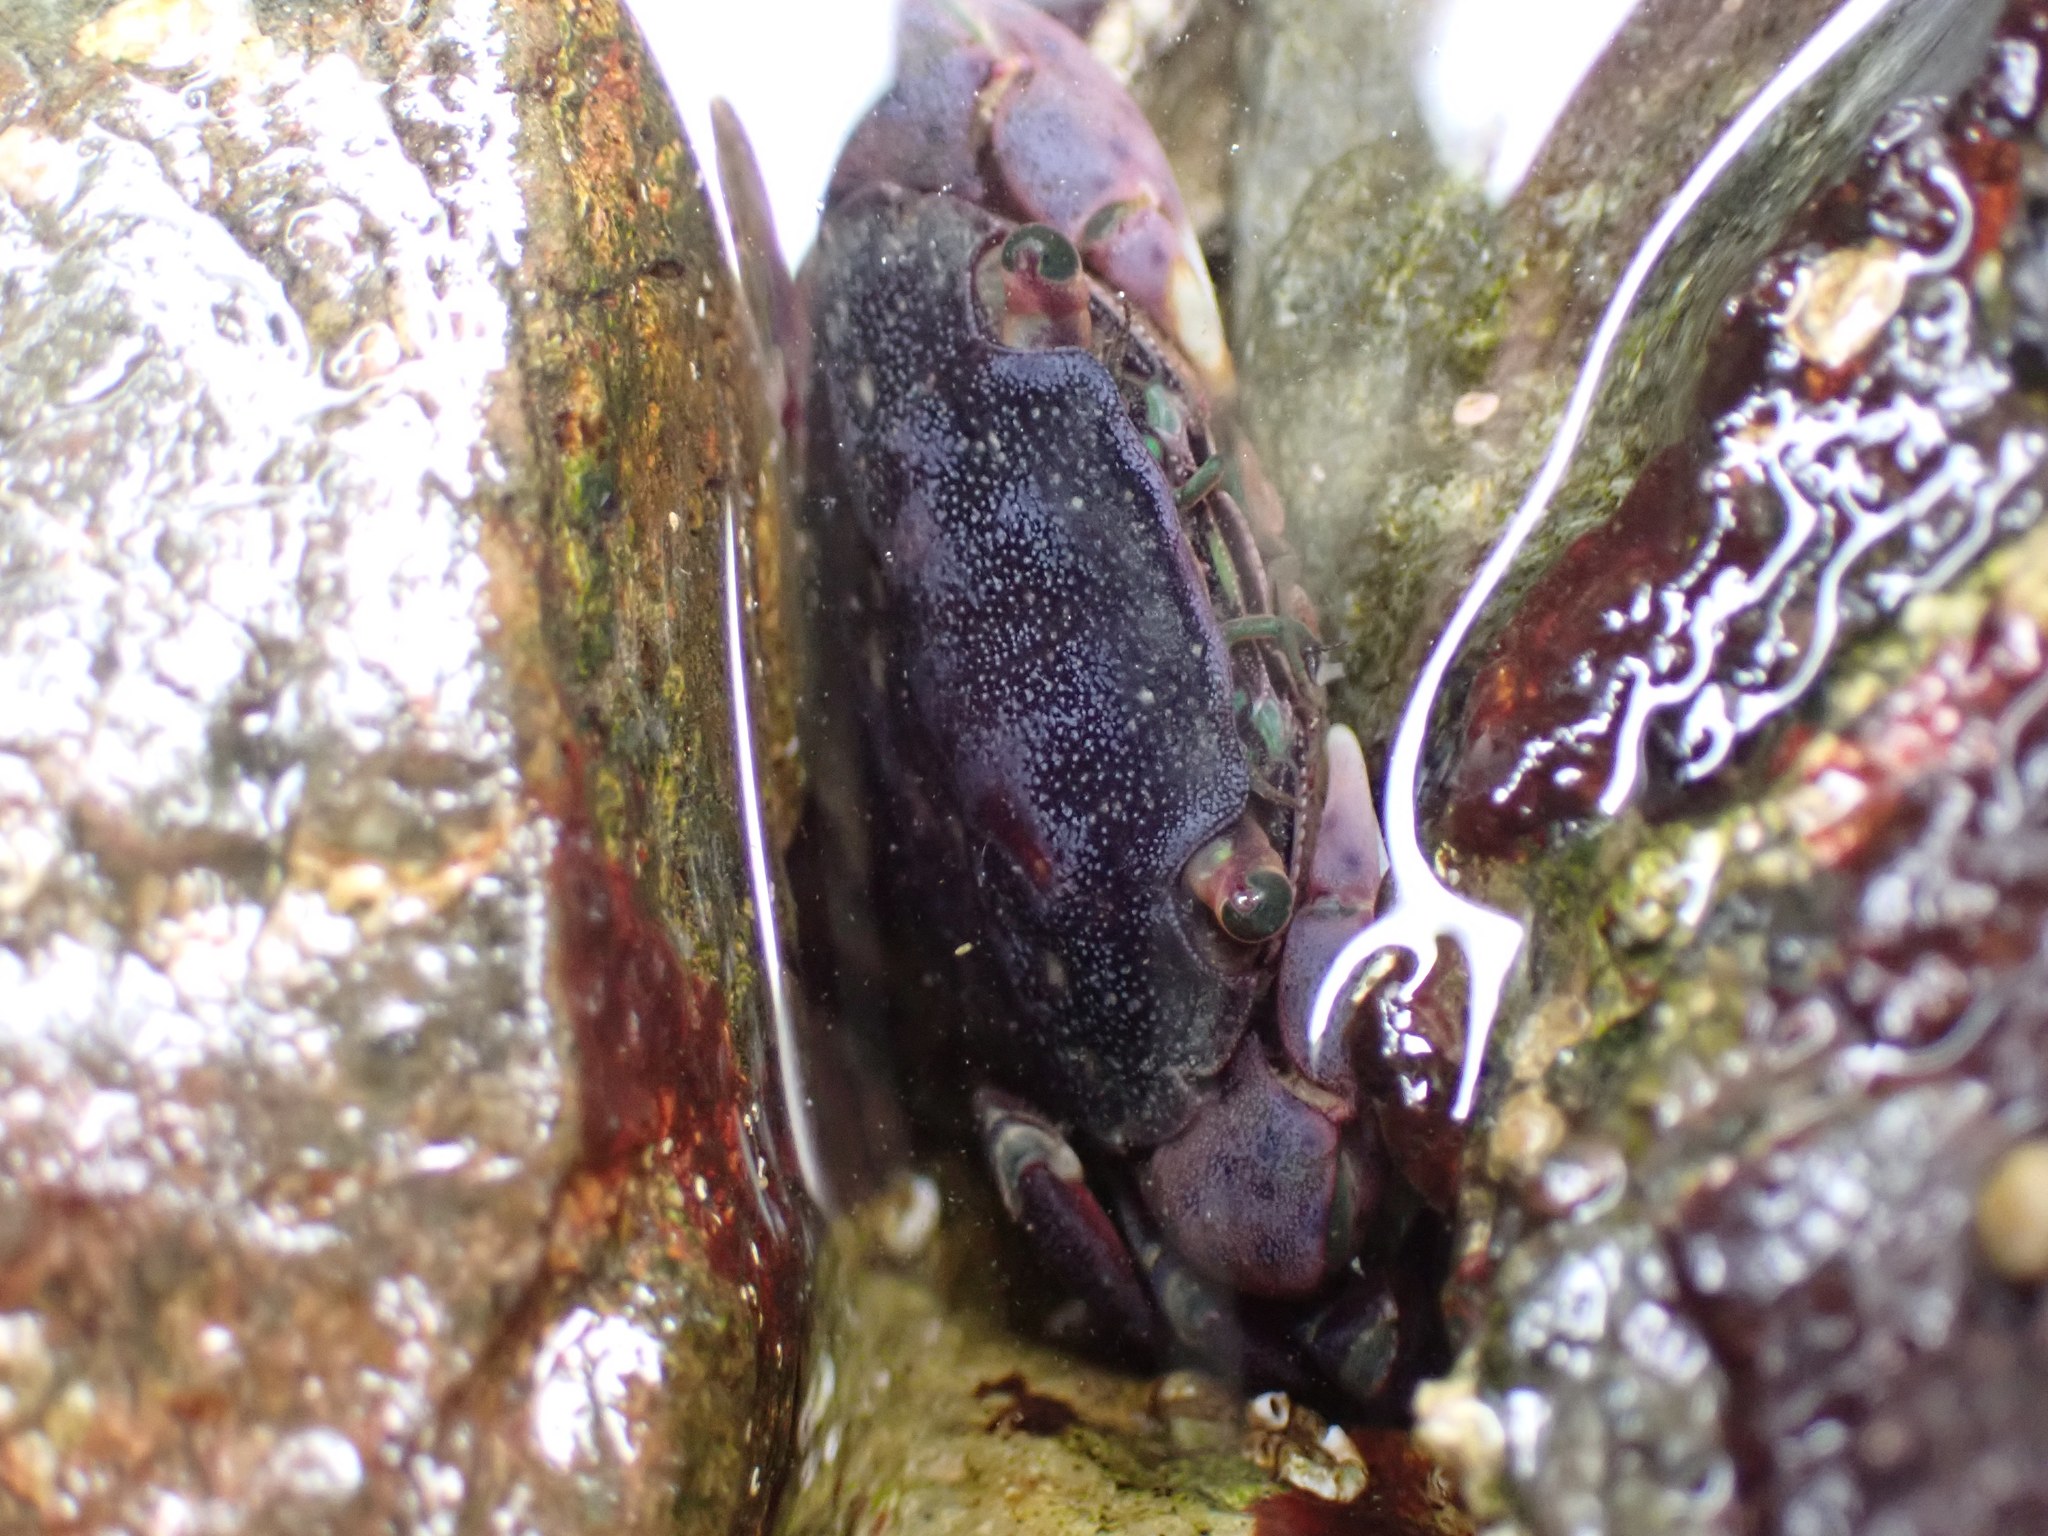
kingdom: Animalia
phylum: Arthropoda
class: Malacostraca
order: Decapoda
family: Varunidae
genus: Hemigrapsus
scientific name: Hemigrapsus nudus
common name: Purple shore crab
